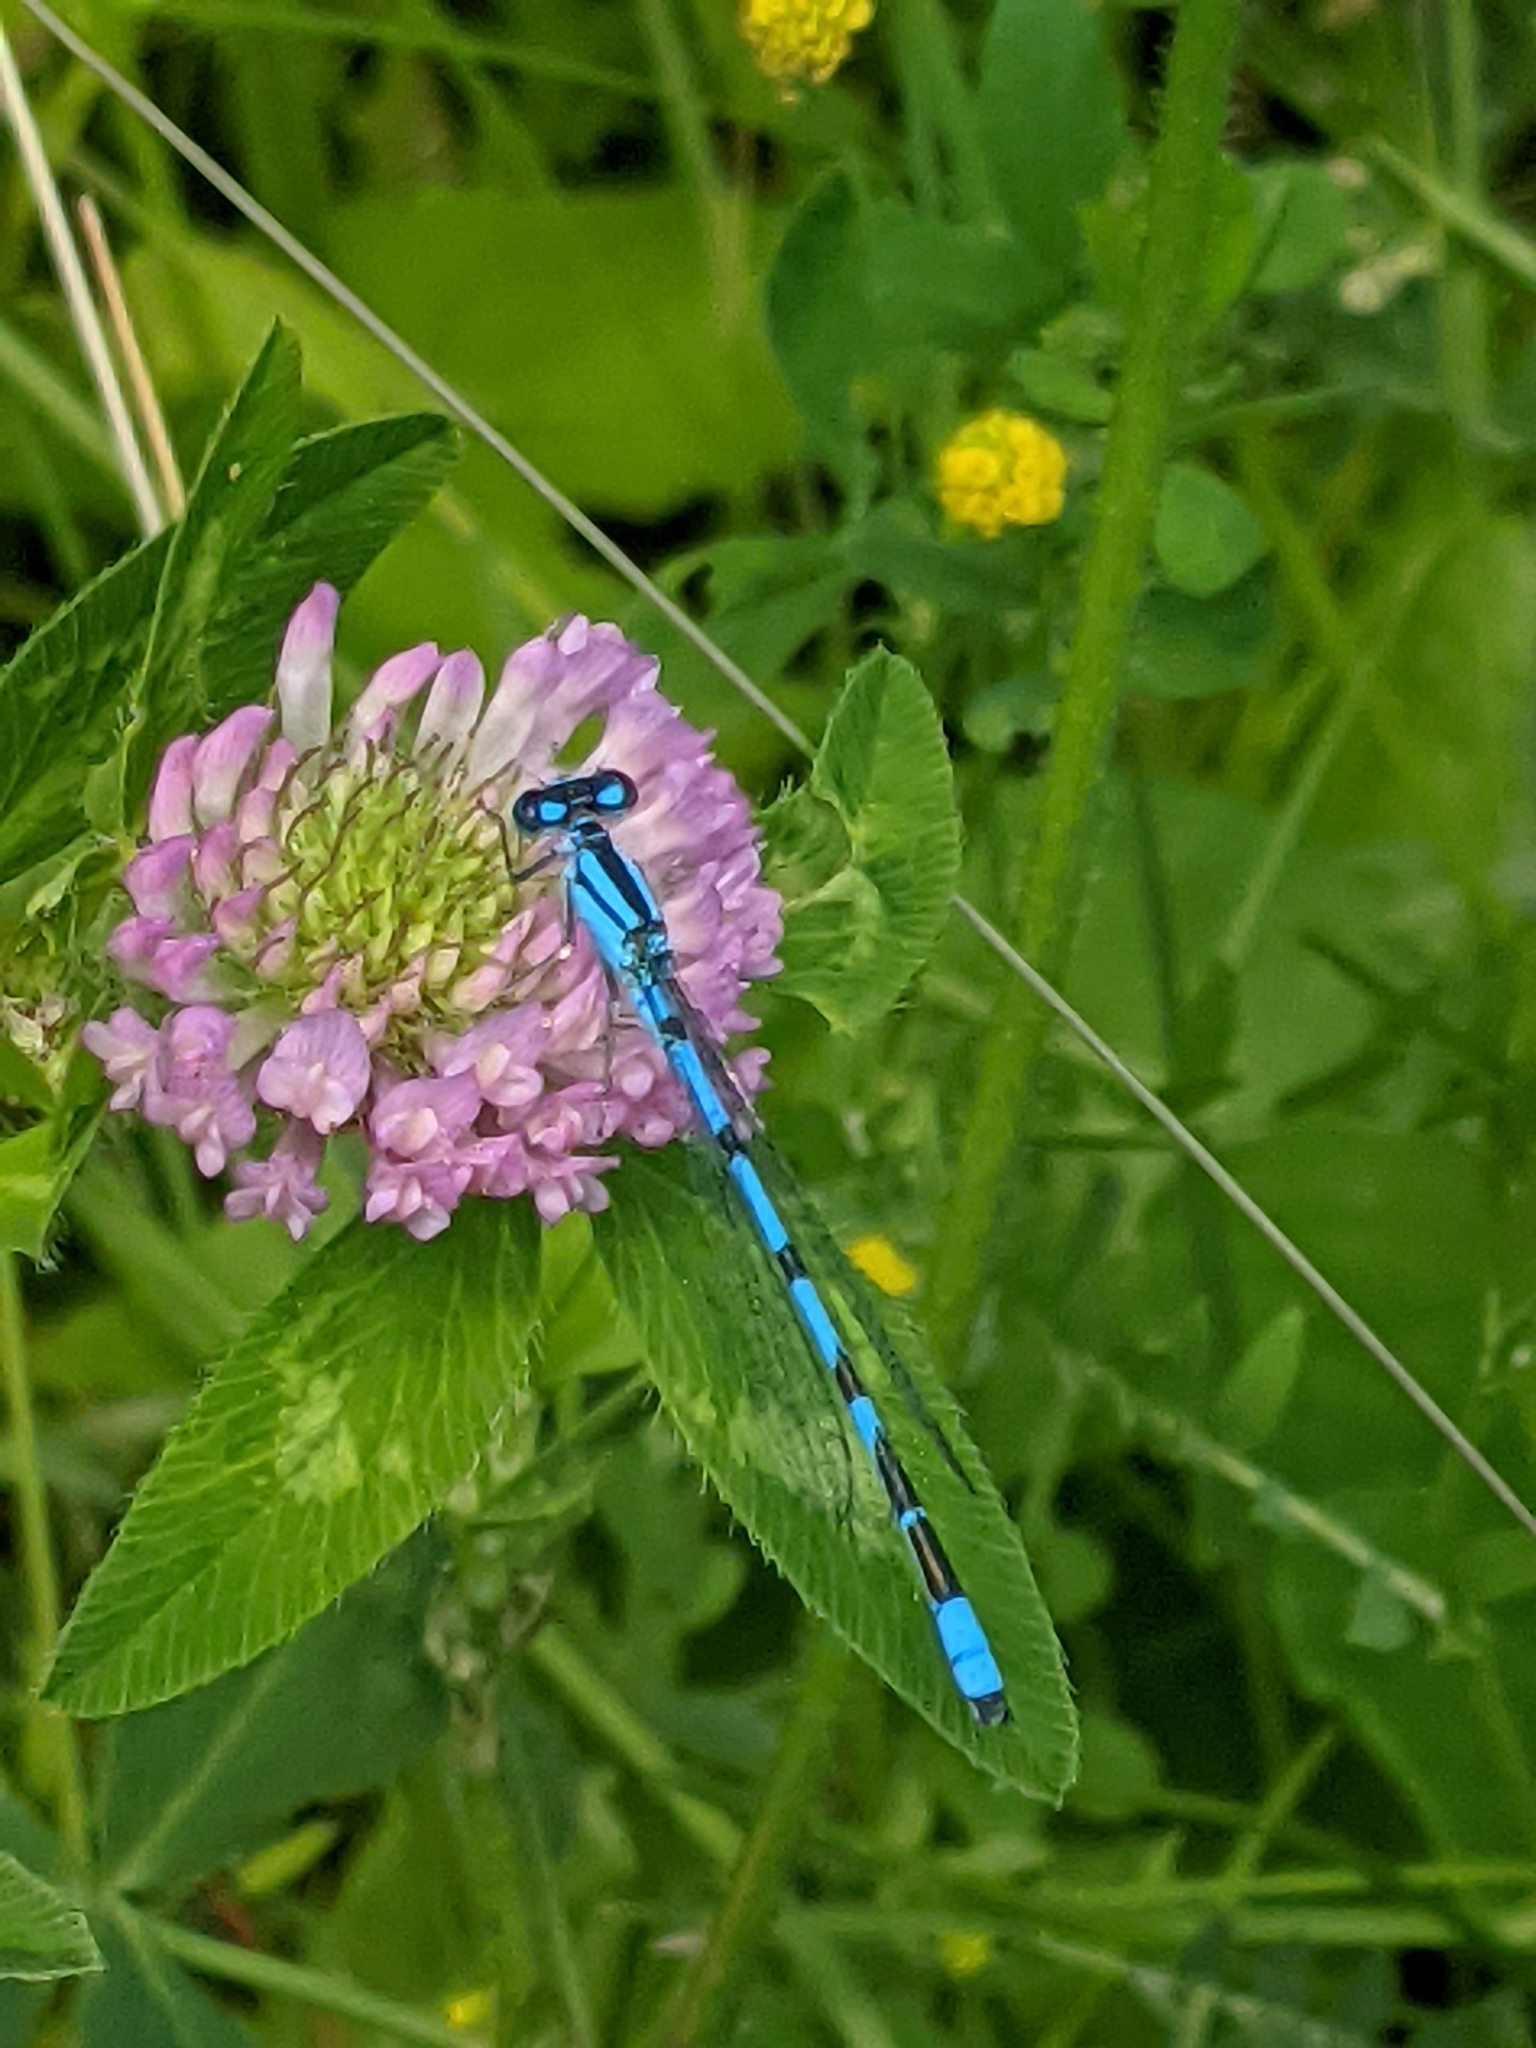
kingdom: Animalia
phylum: Arthropoda
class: Insecta
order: Odonata
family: Coenagrionidae
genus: Enallagma
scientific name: Enallagma ebrium
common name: Marsh bluet
